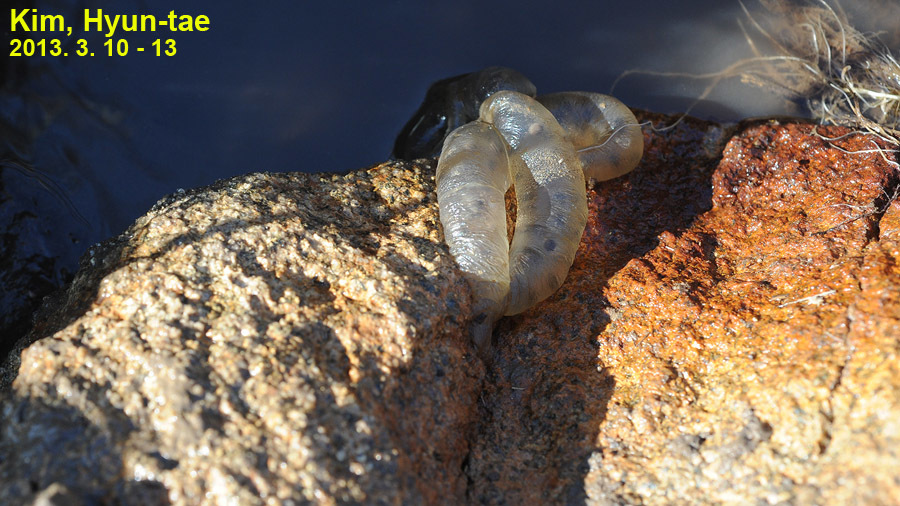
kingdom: Animalia
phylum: Chordata
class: Amphibia
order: Caudata
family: Hynobiidae
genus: Hynobius
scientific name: Hynobius geojeensis
